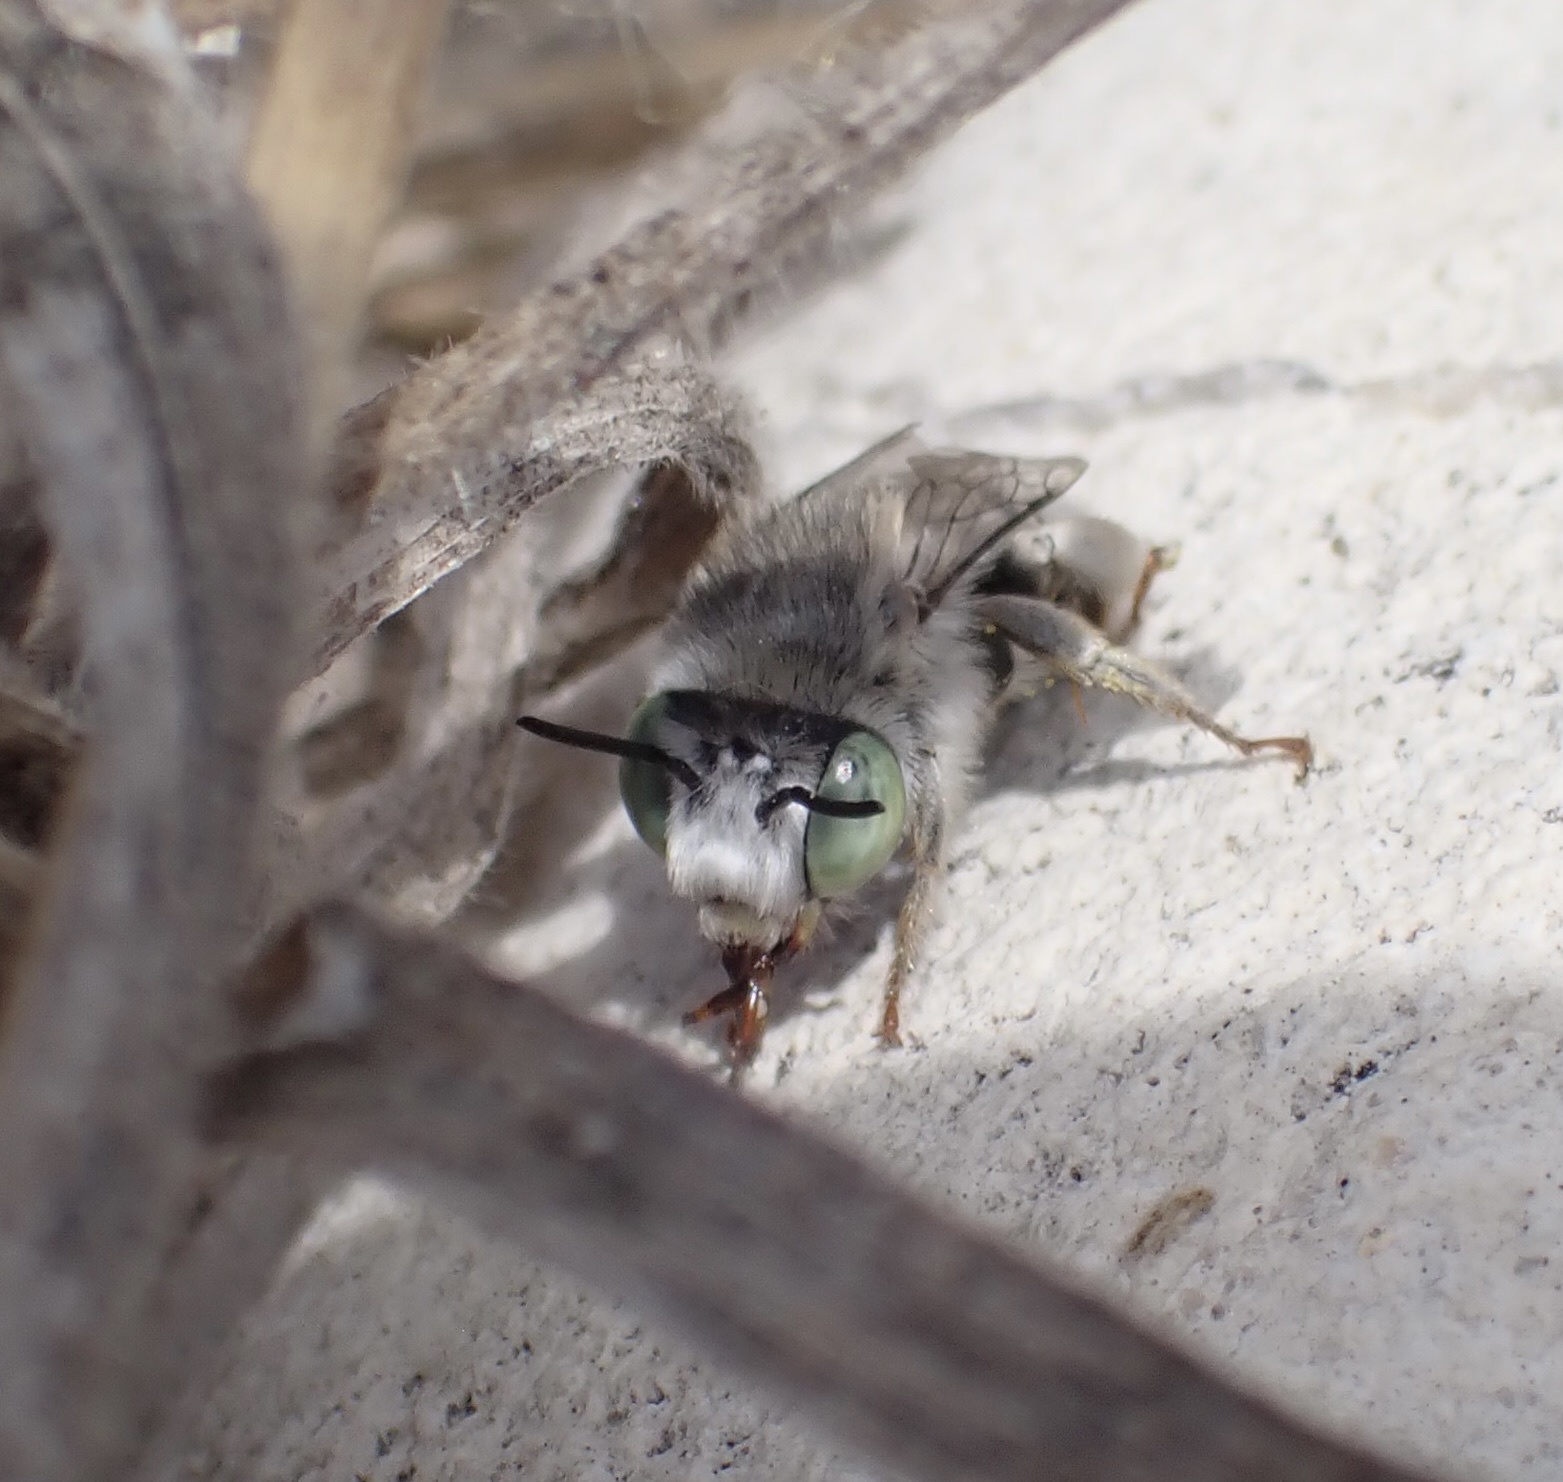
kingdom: Animalia
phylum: Arthropoda
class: Insecta
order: Hymenoptera
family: Apidae
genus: Anthophora
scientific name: Anthophora curta
